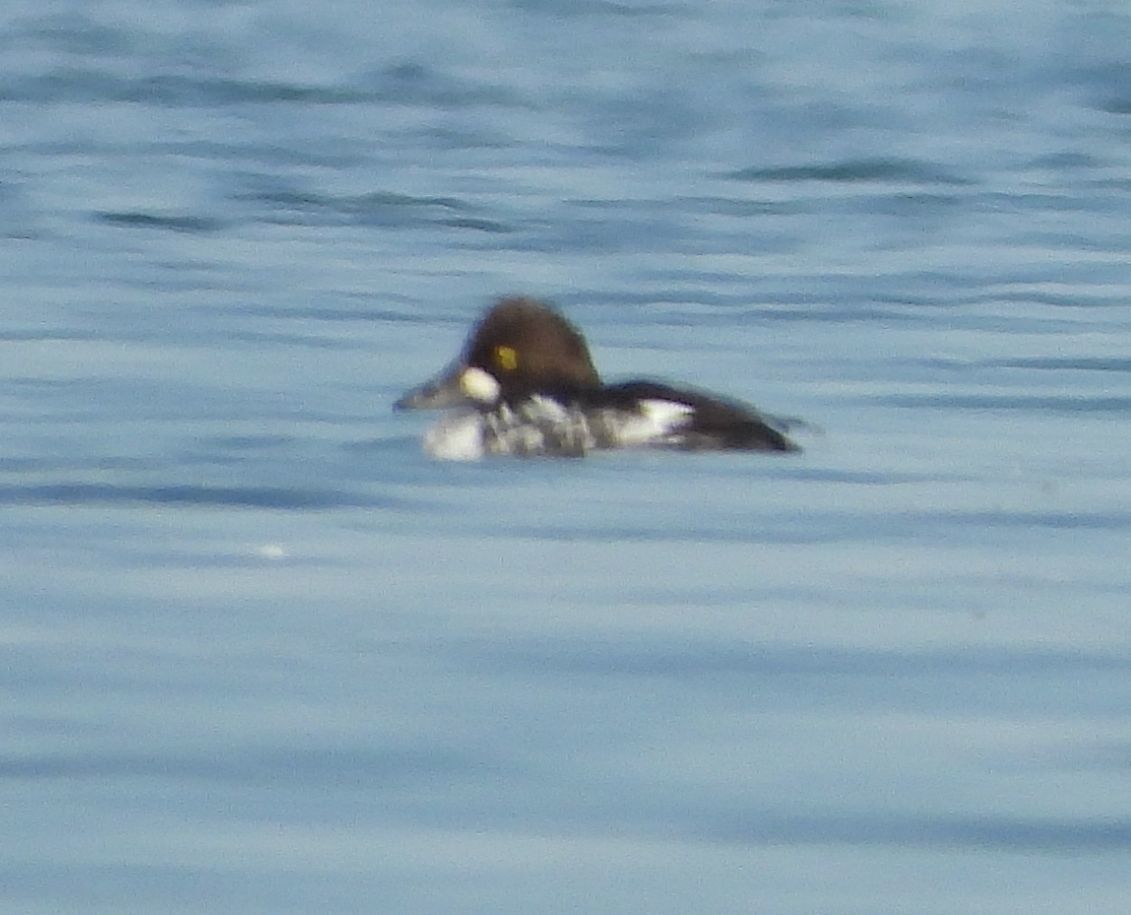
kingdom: Animalia
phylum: Chordata
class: Aves
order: Anseriformes
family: Anatidae
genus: Bucephala
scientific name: Bucephala clangula
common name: Common goldeneye
